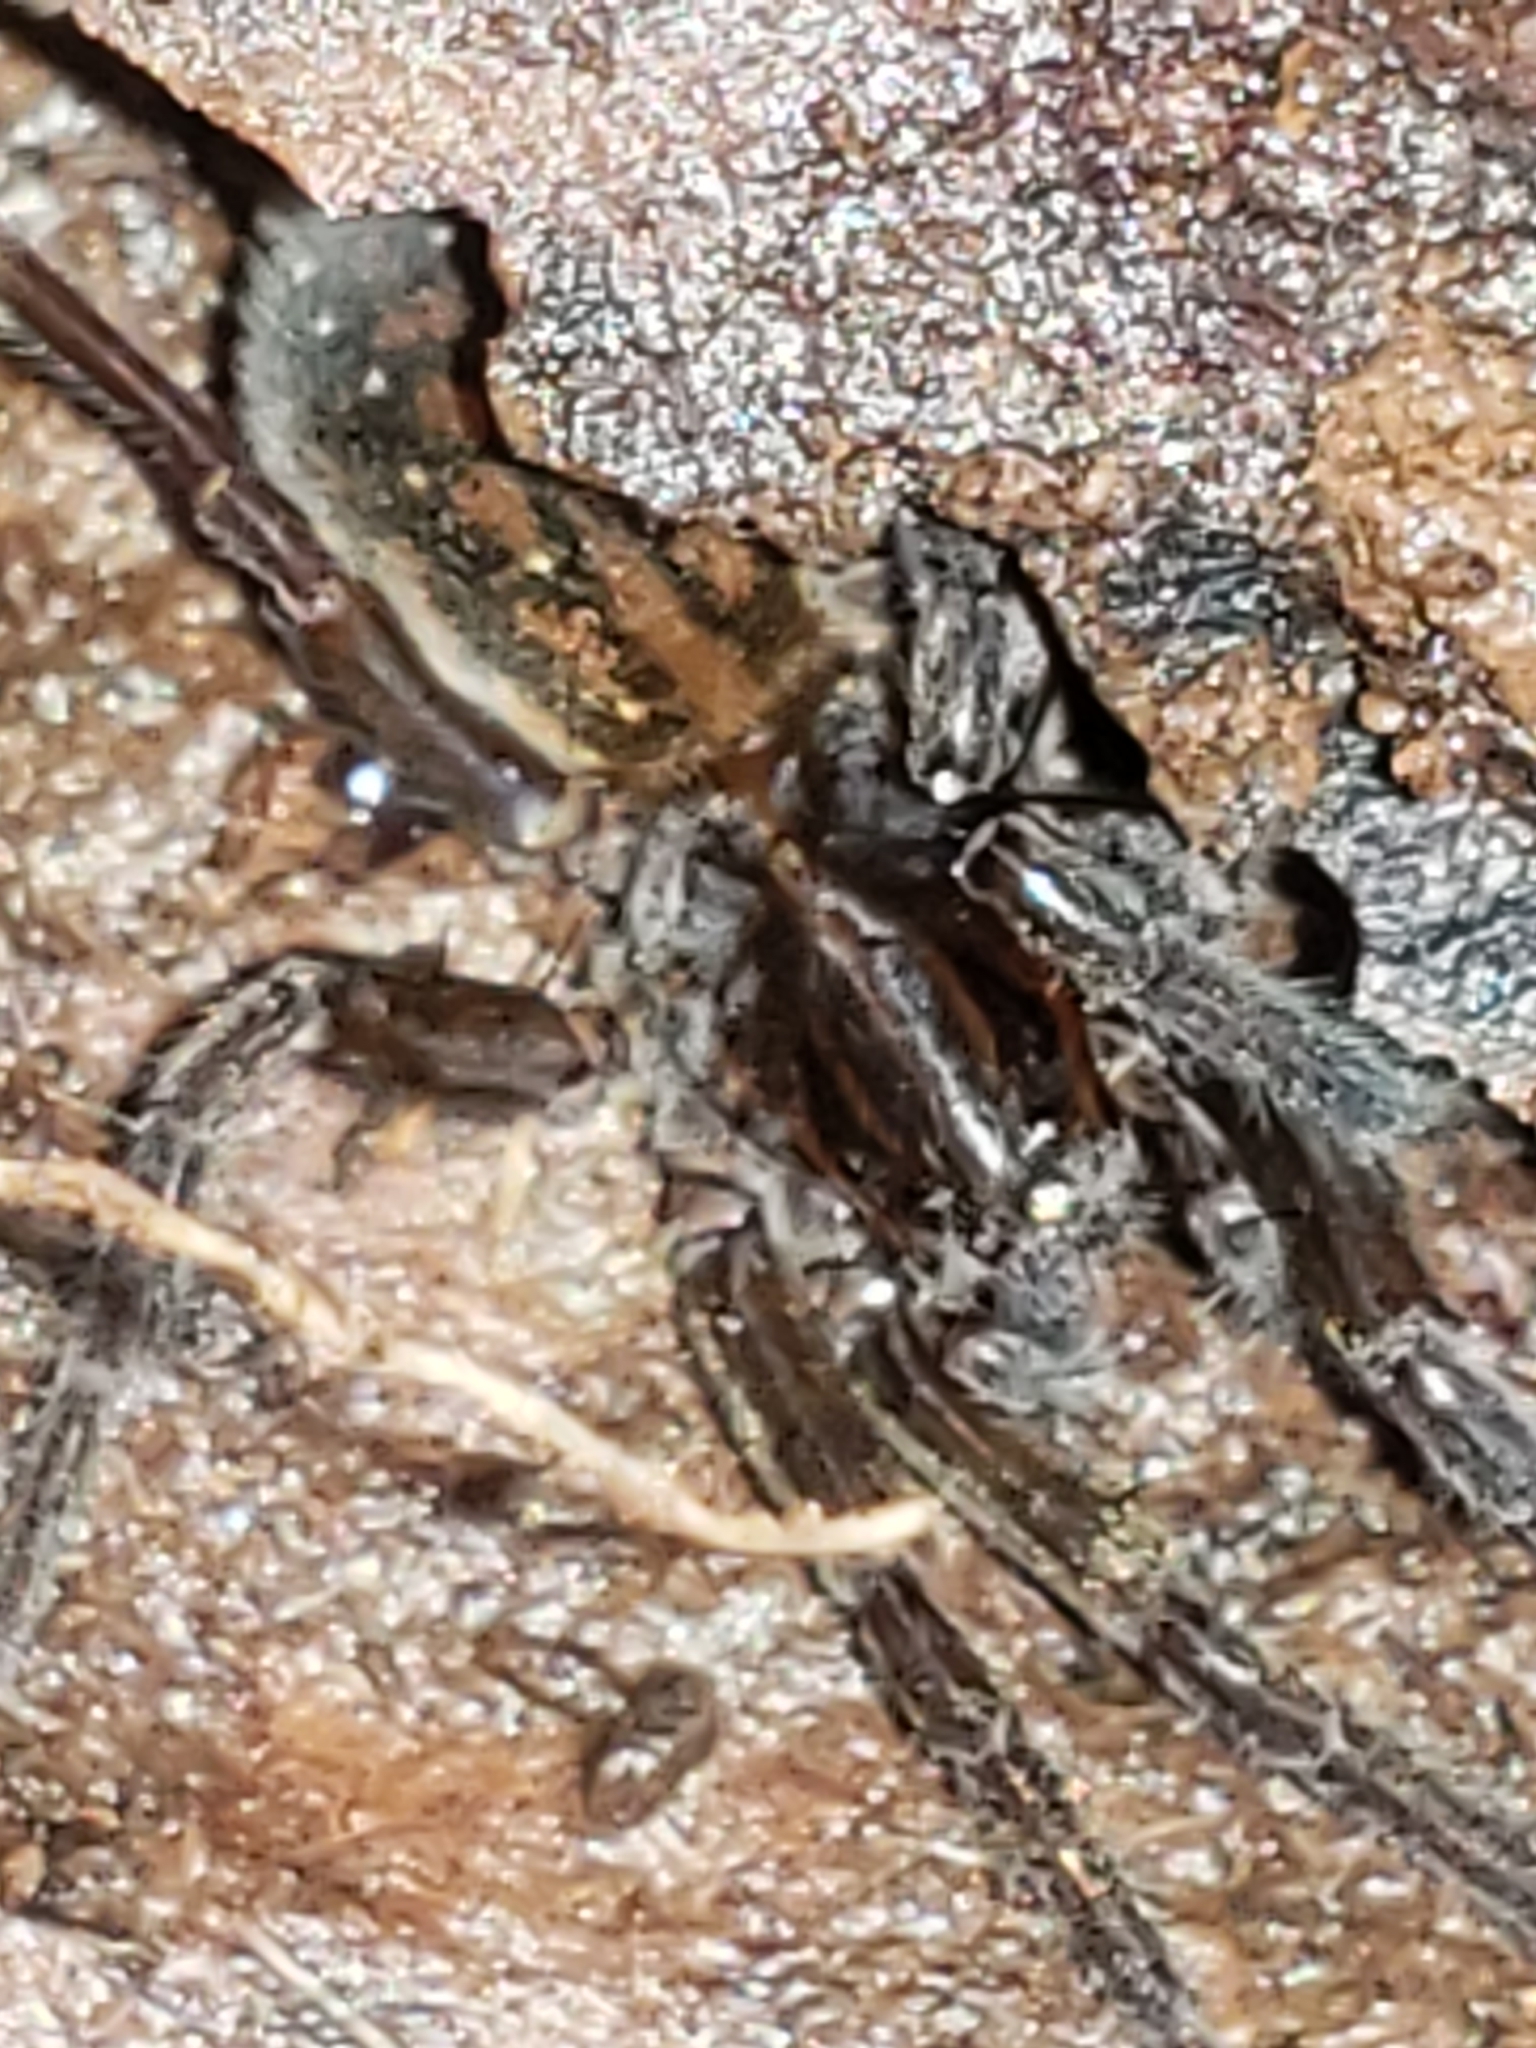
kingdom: Animalia
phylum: Arthropoda
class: Arachnida
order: Araneae
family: Lycosidae
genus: Trebacosa
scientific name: Trebacosa marxi
